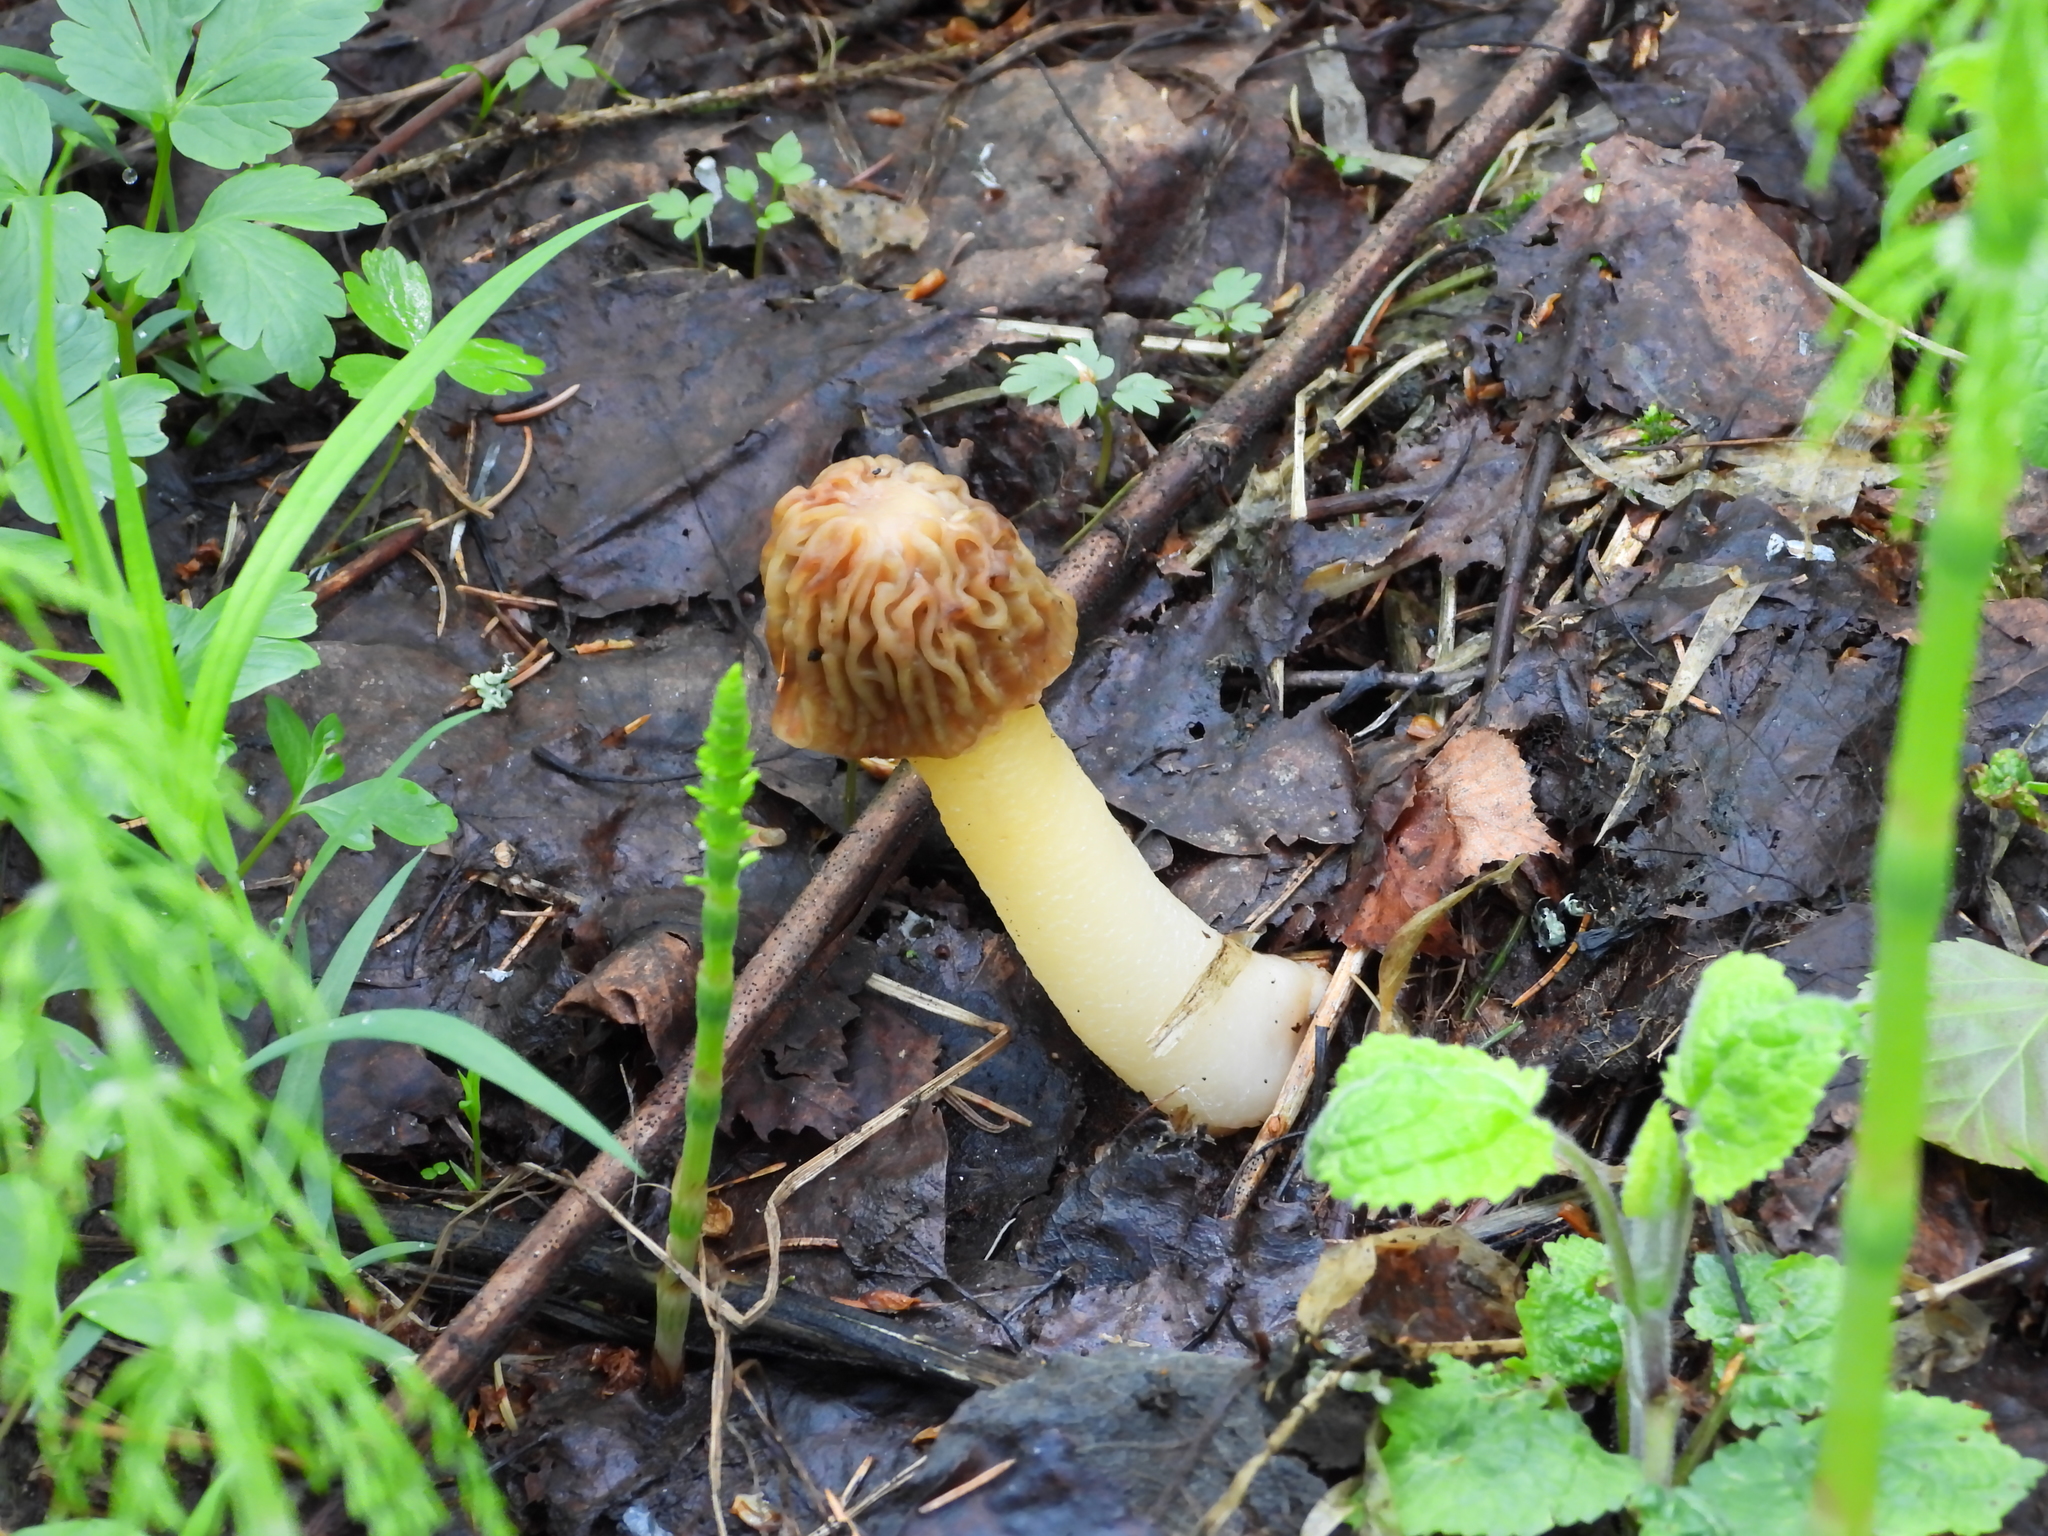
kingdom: Fungi
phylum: Ascomycota
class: Pezizomycetes
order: Pezizales
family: Morchellaceae
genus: Verpa
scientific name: Verpa bohemica
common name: Wrinkled thimble morel
